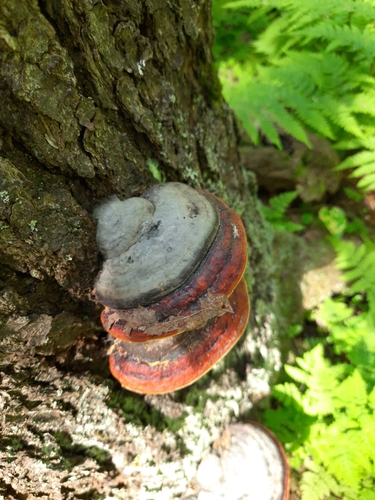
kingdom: Fungi
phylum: Basidiomycota
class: Agaricomycetes
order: Polyporales
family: Fomitopsidaceae
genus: Fomitopsis
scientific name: Fomitopsis pinicola
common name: Red-belted bracket
